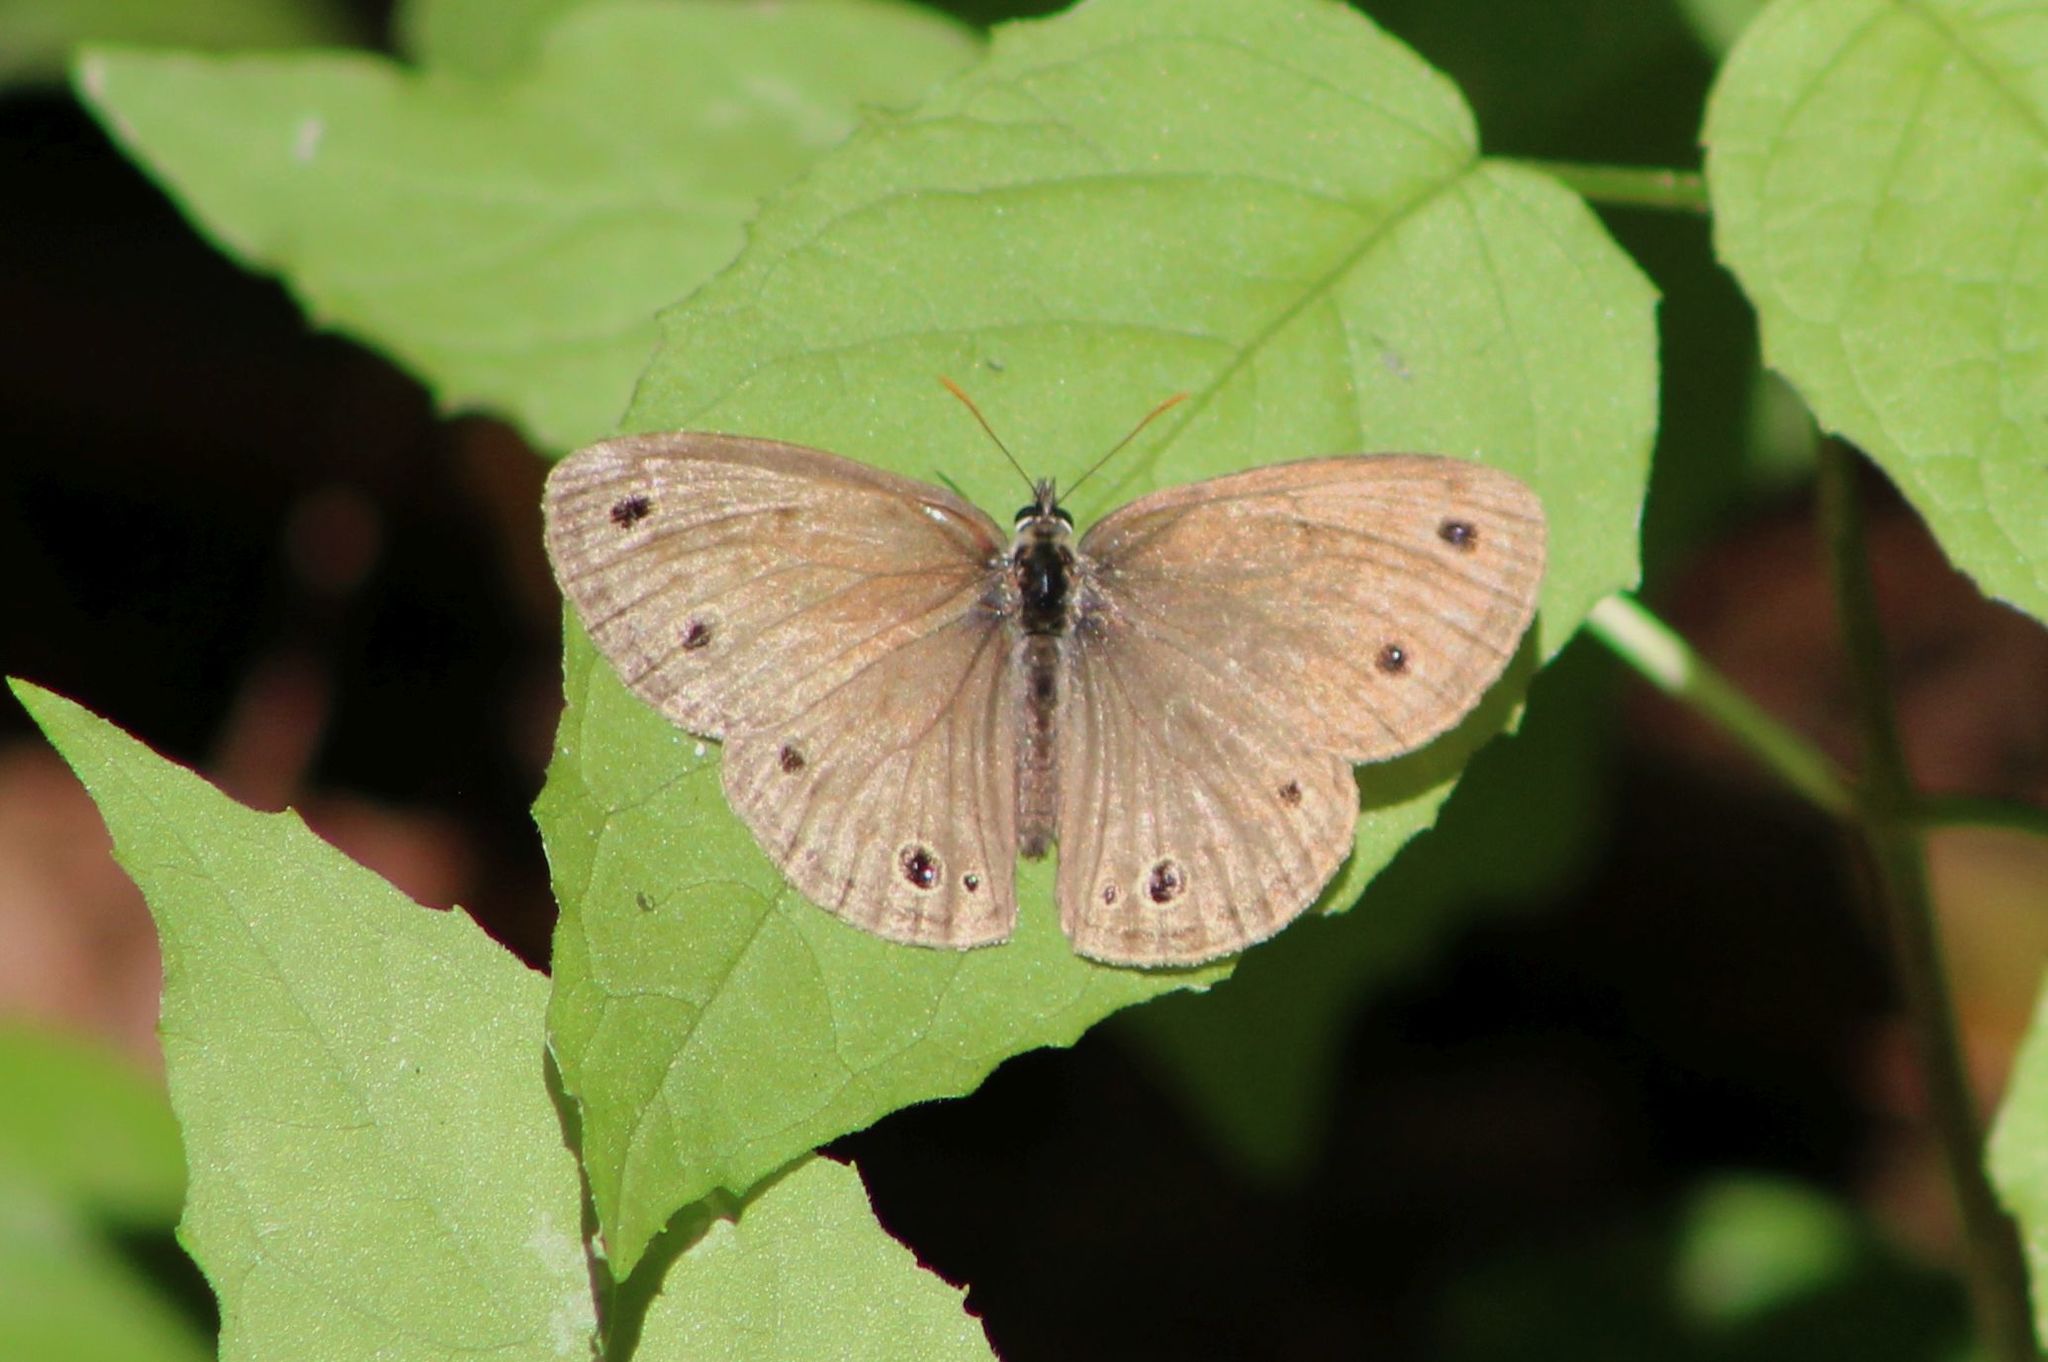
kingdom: Animalia
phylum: Arthropoda
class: Insecta
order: Lepidoptera
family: Nymphalidae
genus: Euptychia
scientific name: Euptychia cymela
